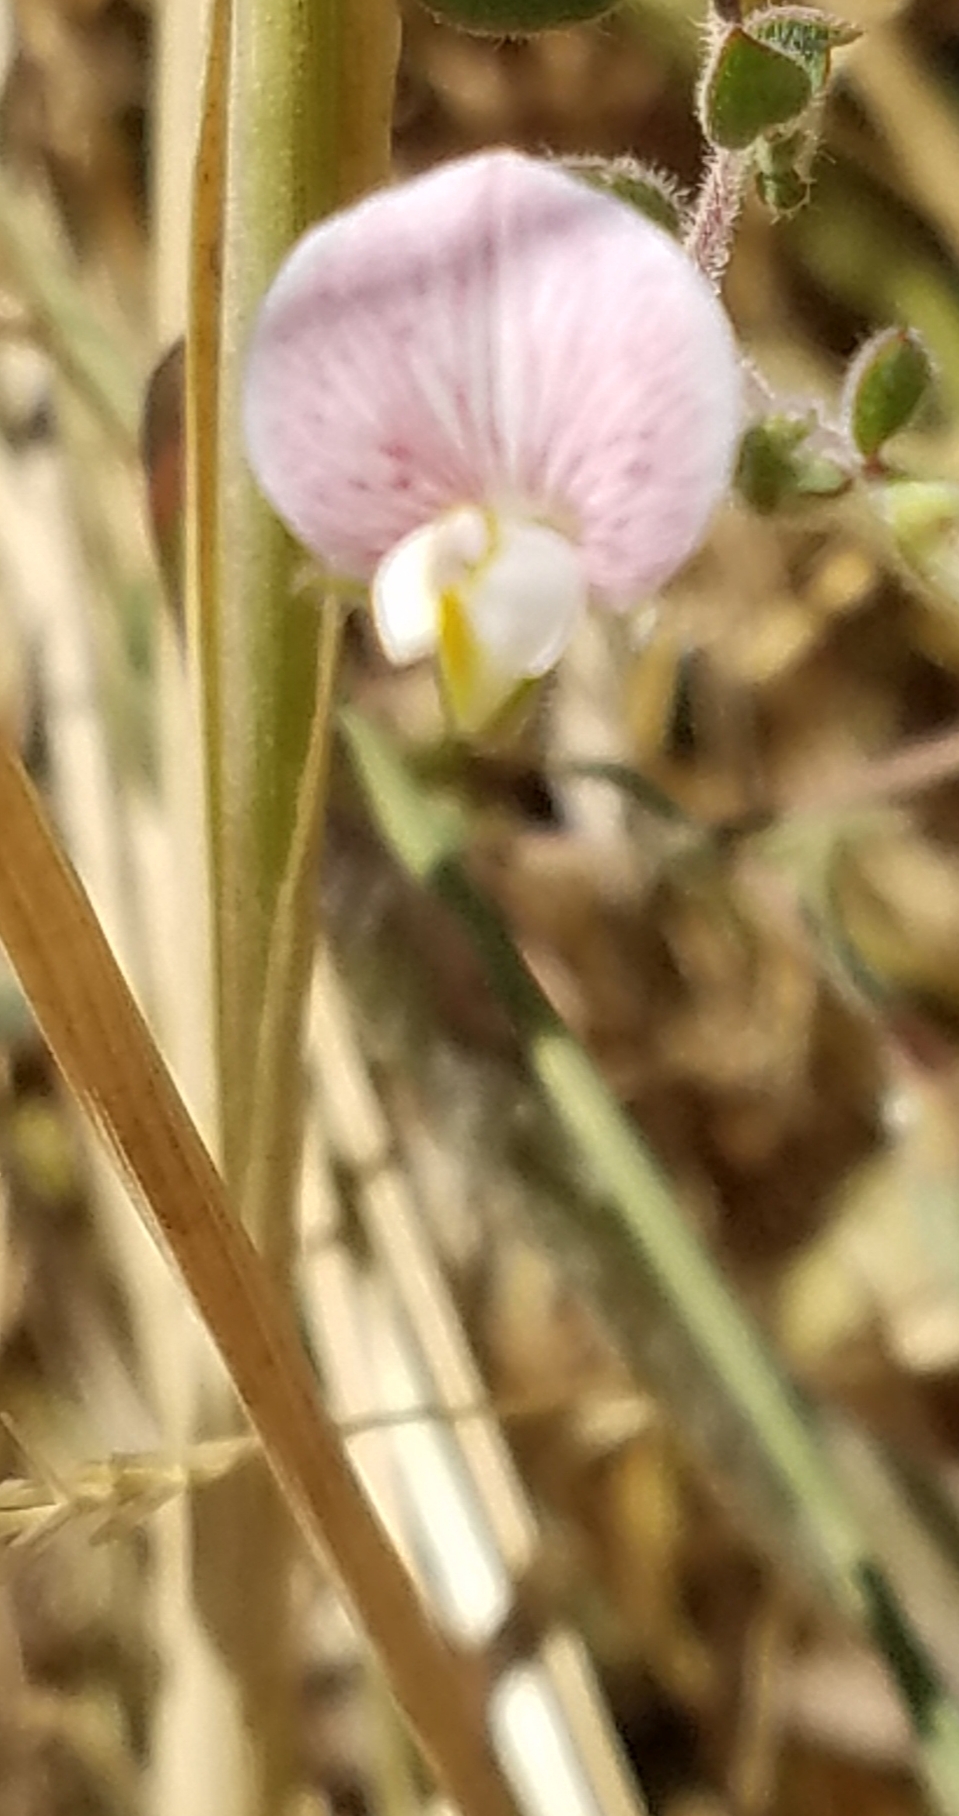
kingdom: Plantae
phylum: Tracheophyta
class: Magnoliopsida
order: Fabales
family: Fabaceae
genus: Acmispon
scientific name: Acmispon americanus
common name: American bird's-foot trefoil
